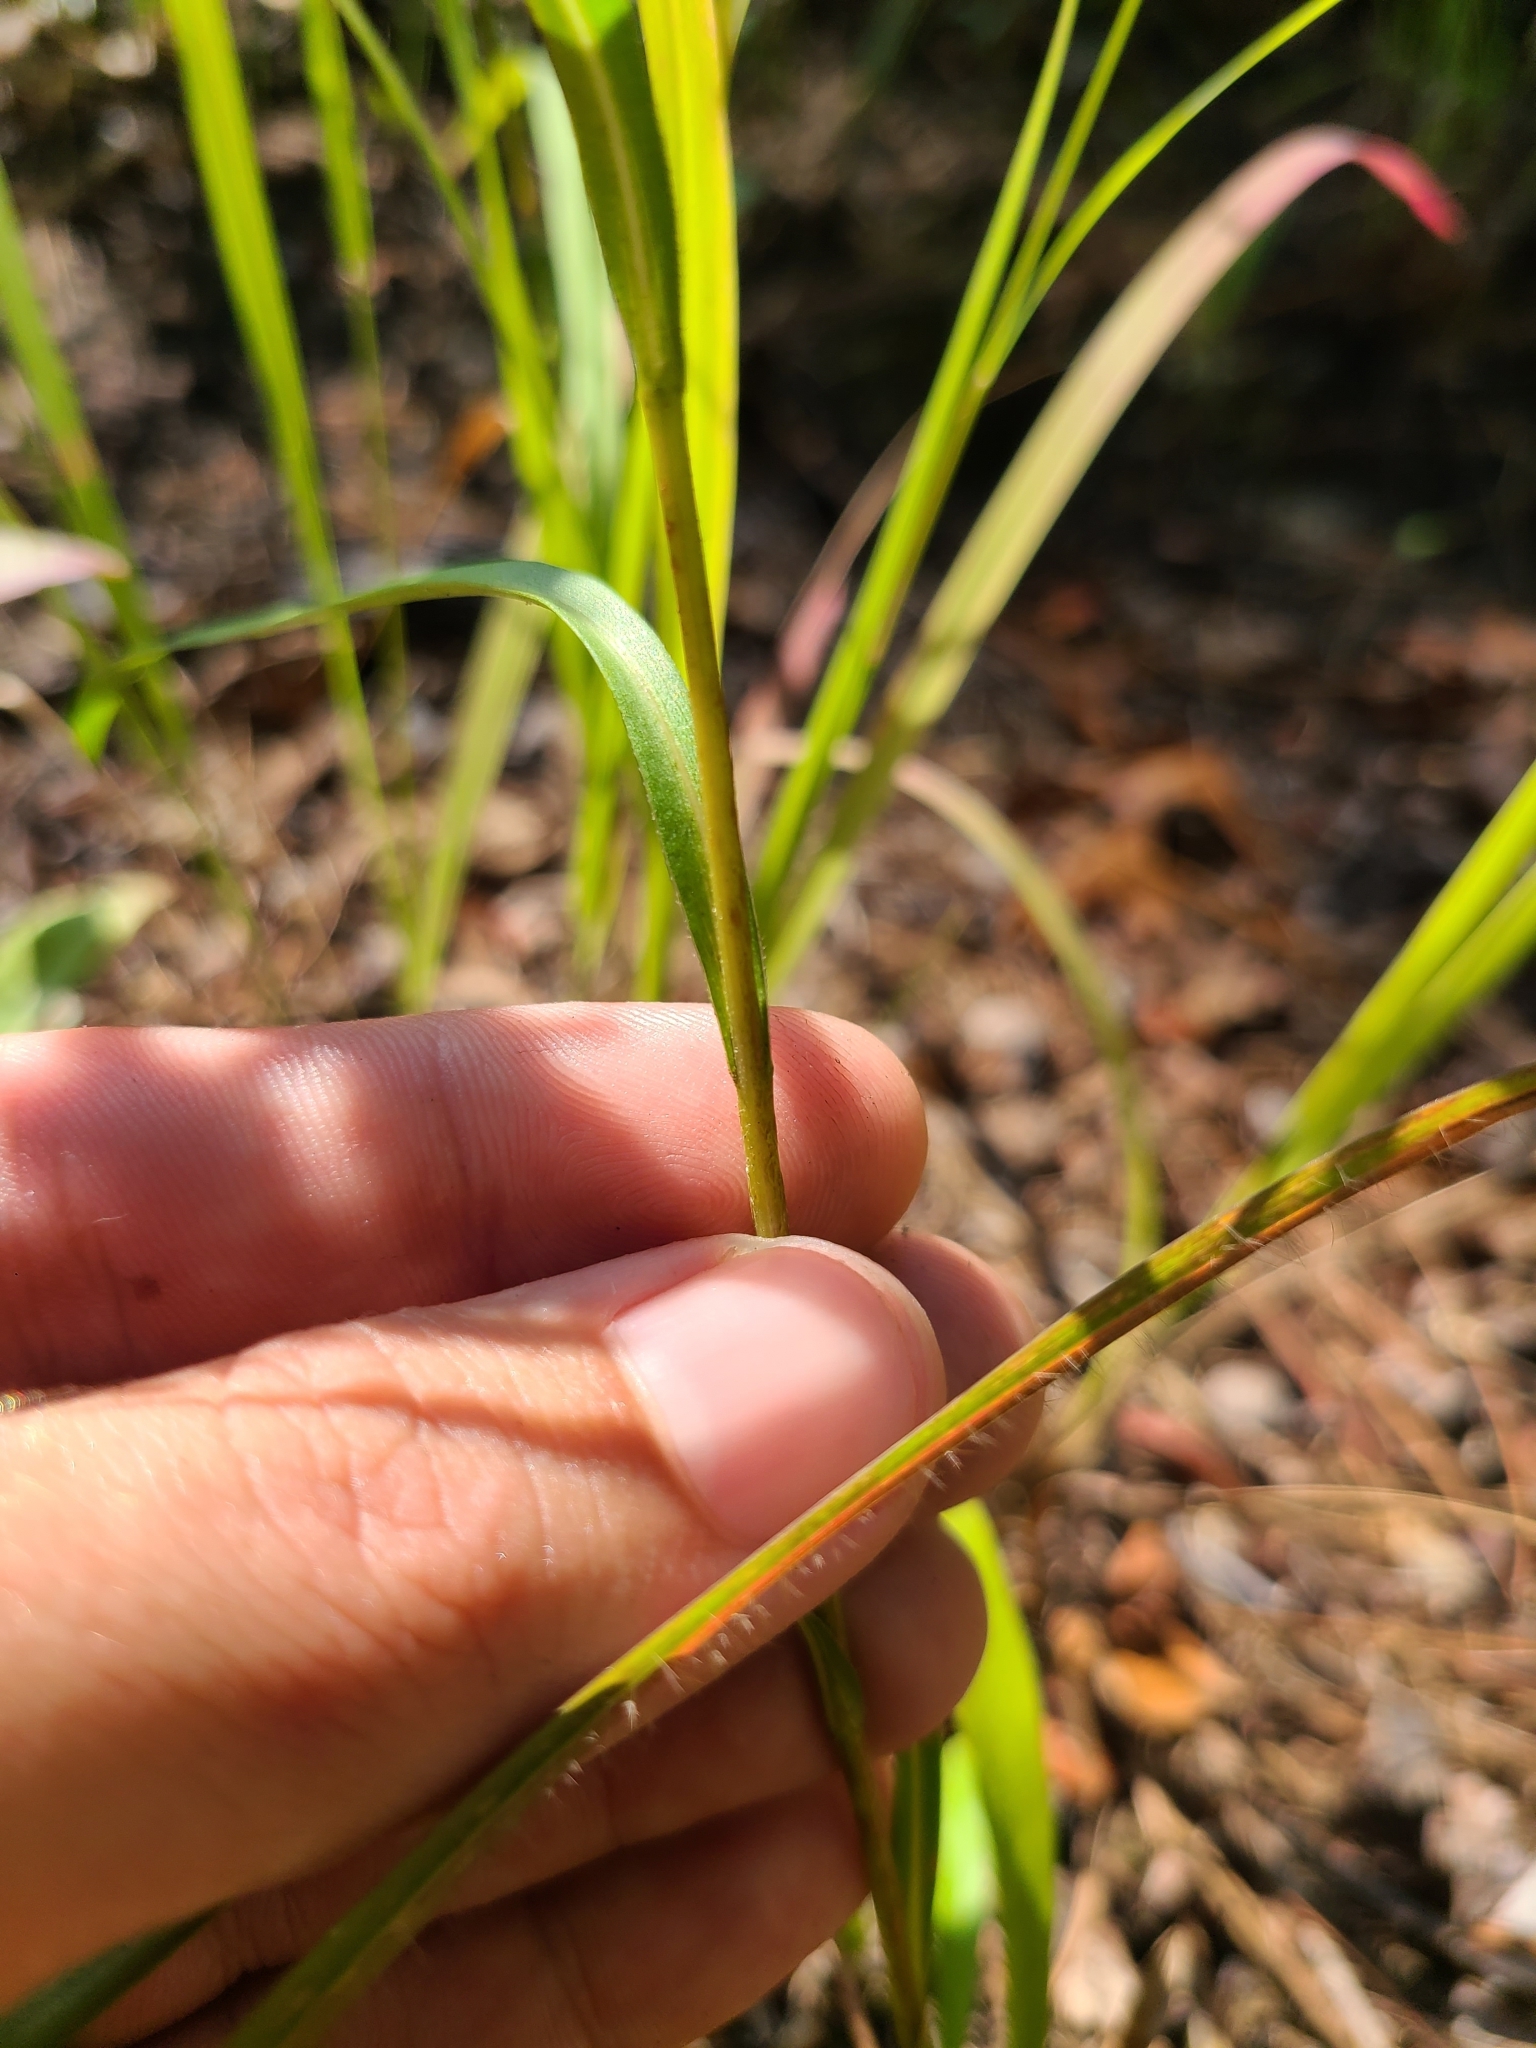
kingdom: Plantae
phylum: Tracheophyta
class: Magnoliopsida
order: Asterales
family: Asteraceae
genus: Eurybia
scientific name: Eurybia hemispherica
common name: Showy aster
